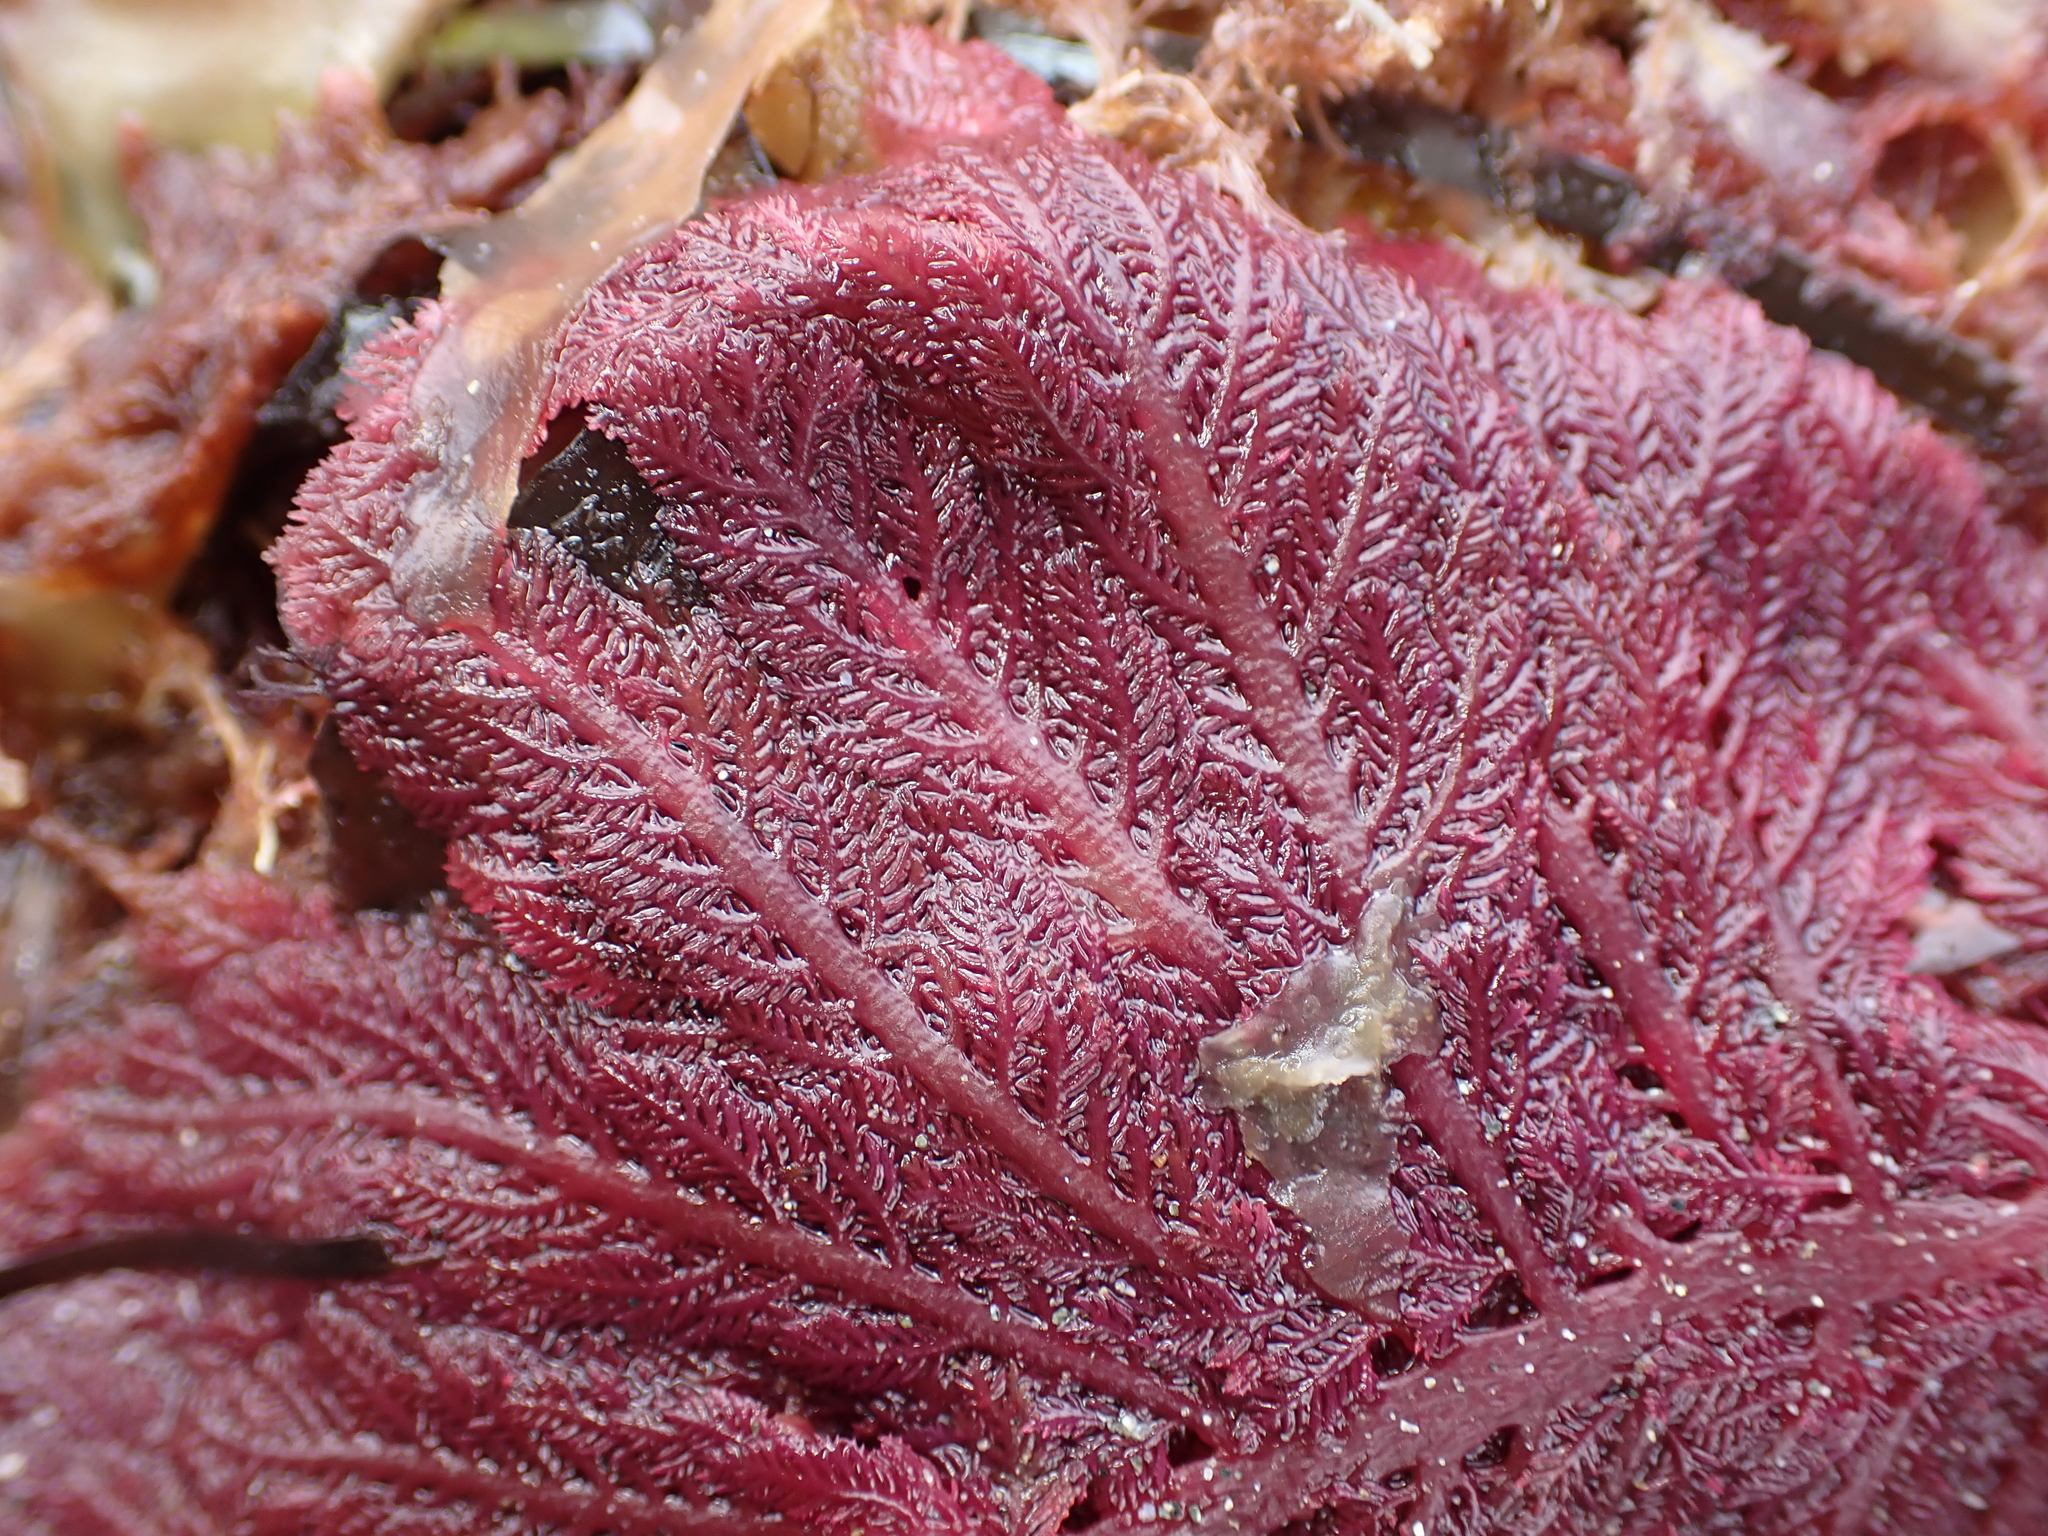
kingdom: Plantae
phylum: Rhodophyta
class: Florideophyceae
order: Ceramiales
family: Callithamniaceae
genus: Euptilota
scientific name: Euptilota formosissima
